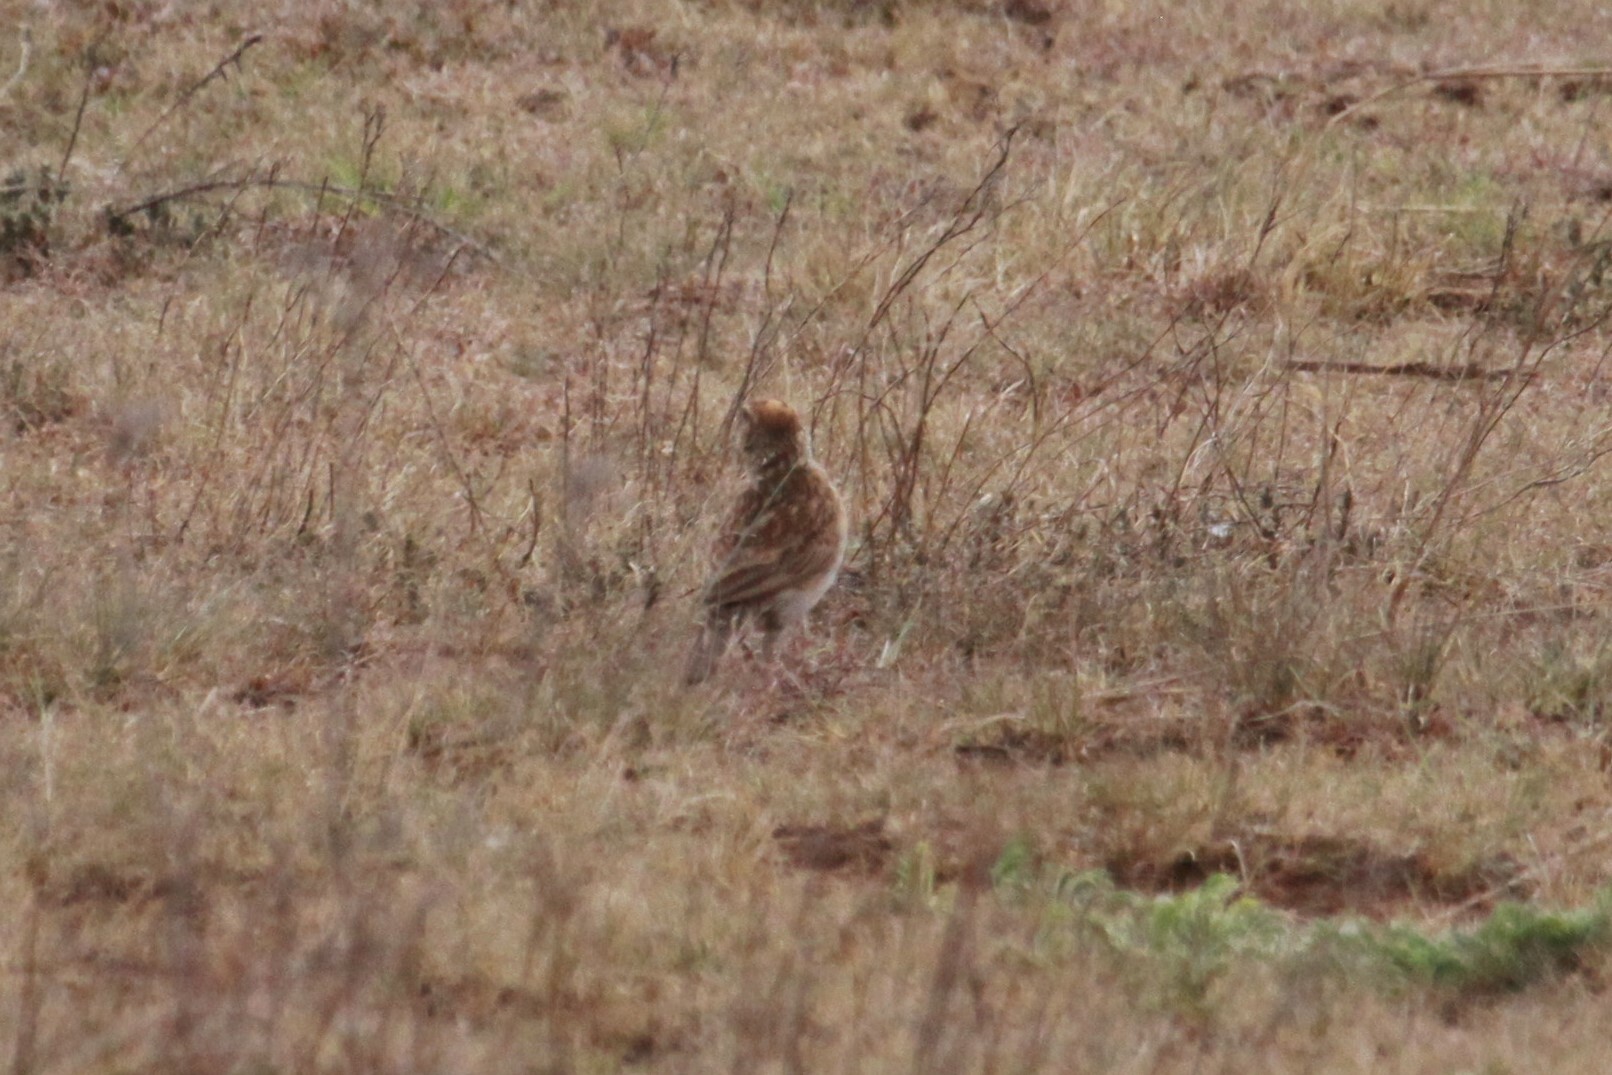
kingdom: Animalia
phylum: Chordata
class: Aves
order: Passeriformes
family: Alaudidae
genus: Mirafra
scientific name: Mirafra africana
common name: Rufous-naped lark
